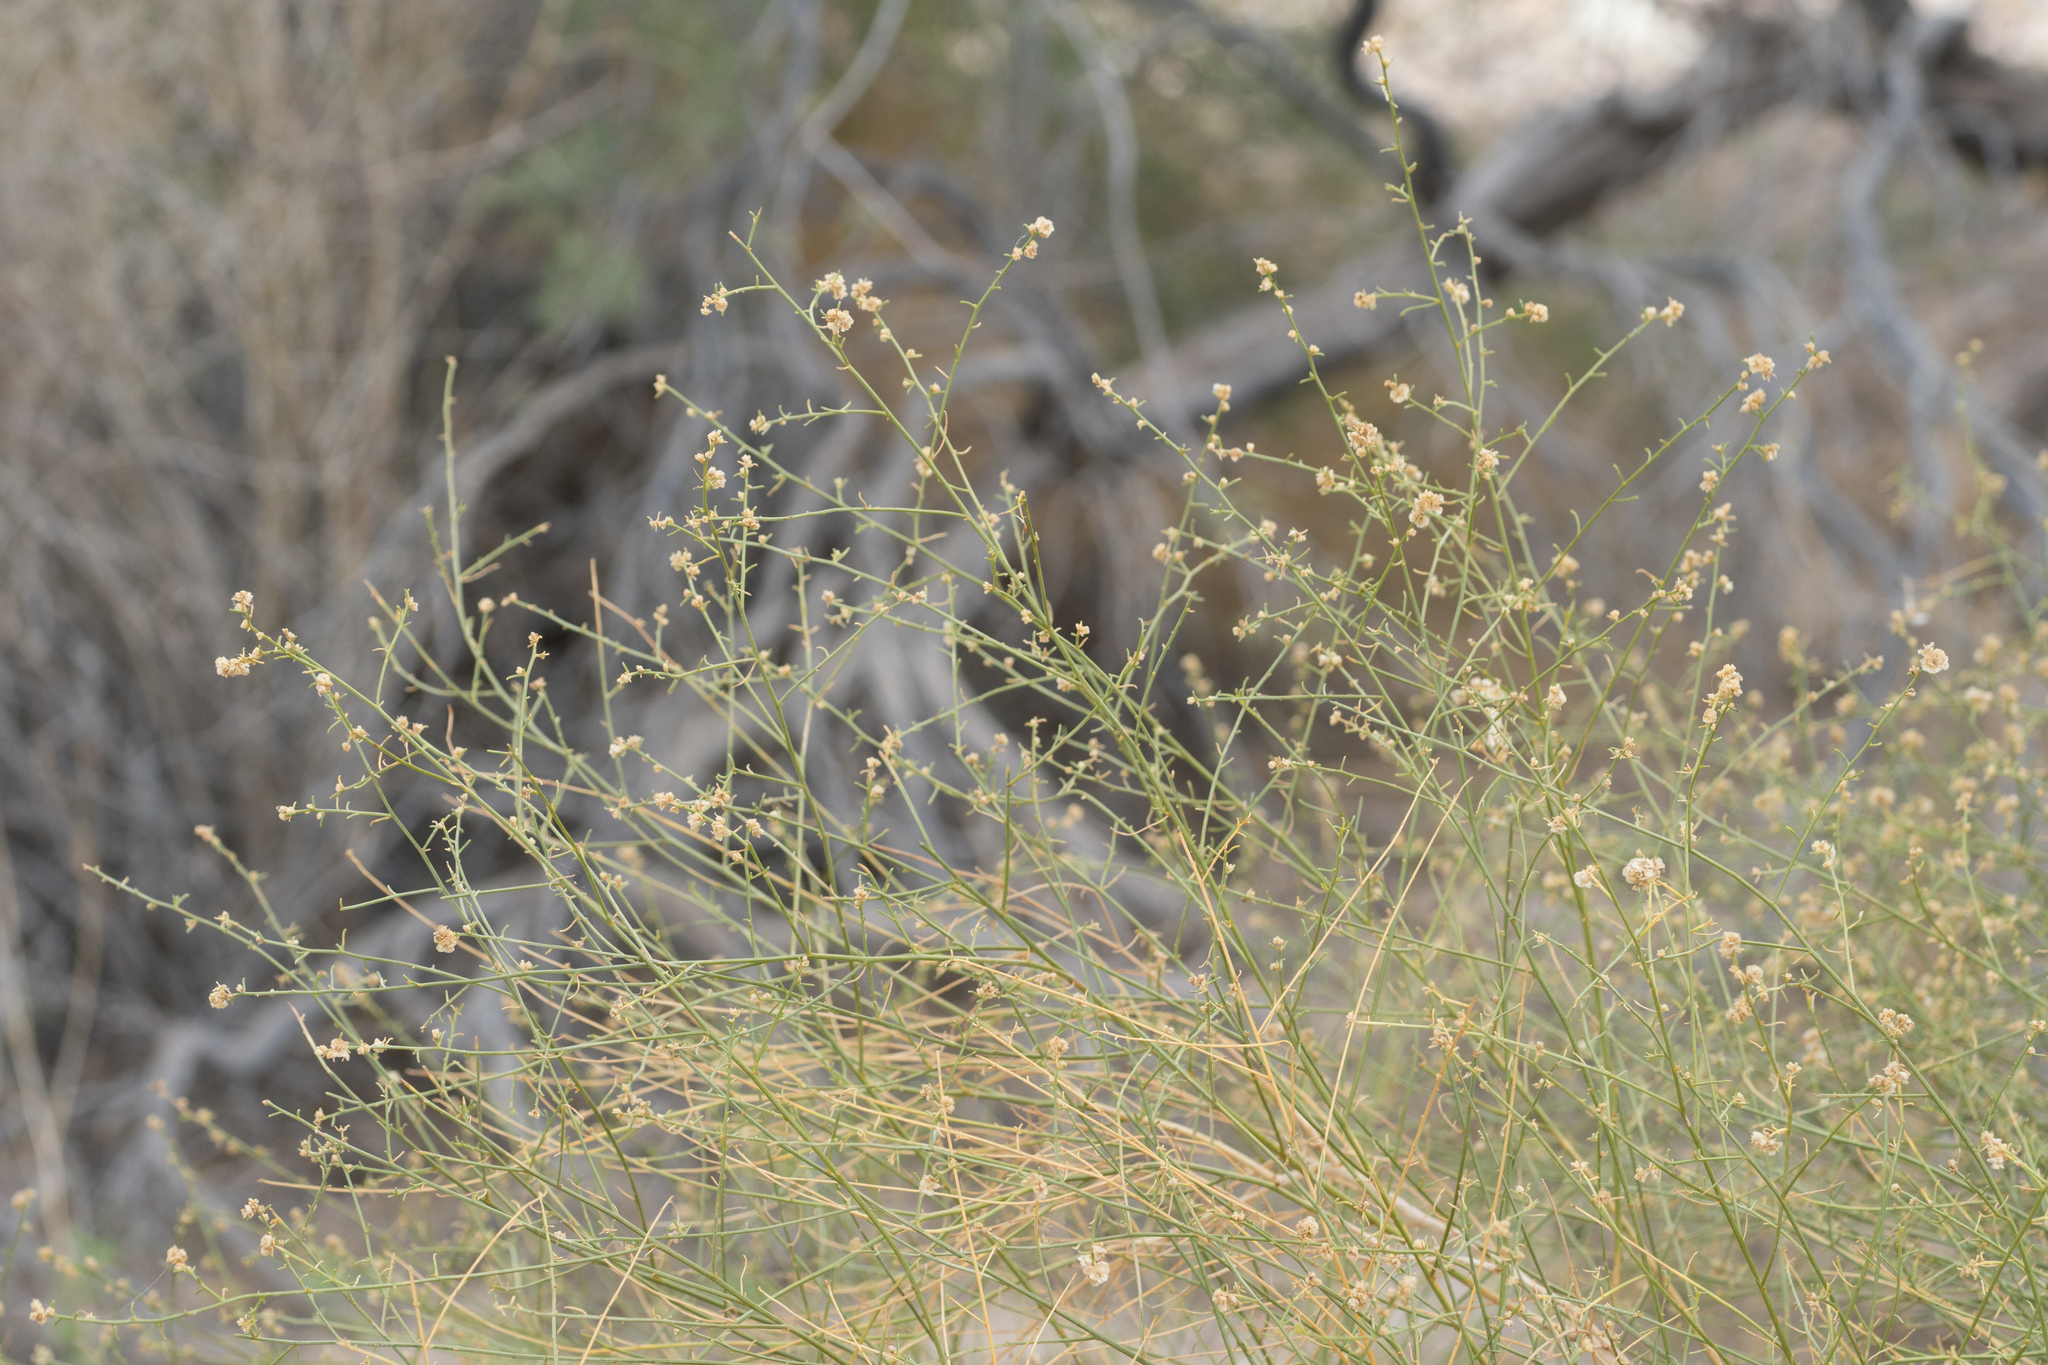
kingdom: Plantae
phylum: Tracheophyta
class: Magnoliopsida
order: Asterales
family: Asteraceae
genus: Ambrosia
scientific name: Ambrosia salsola
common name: Burrobrush
